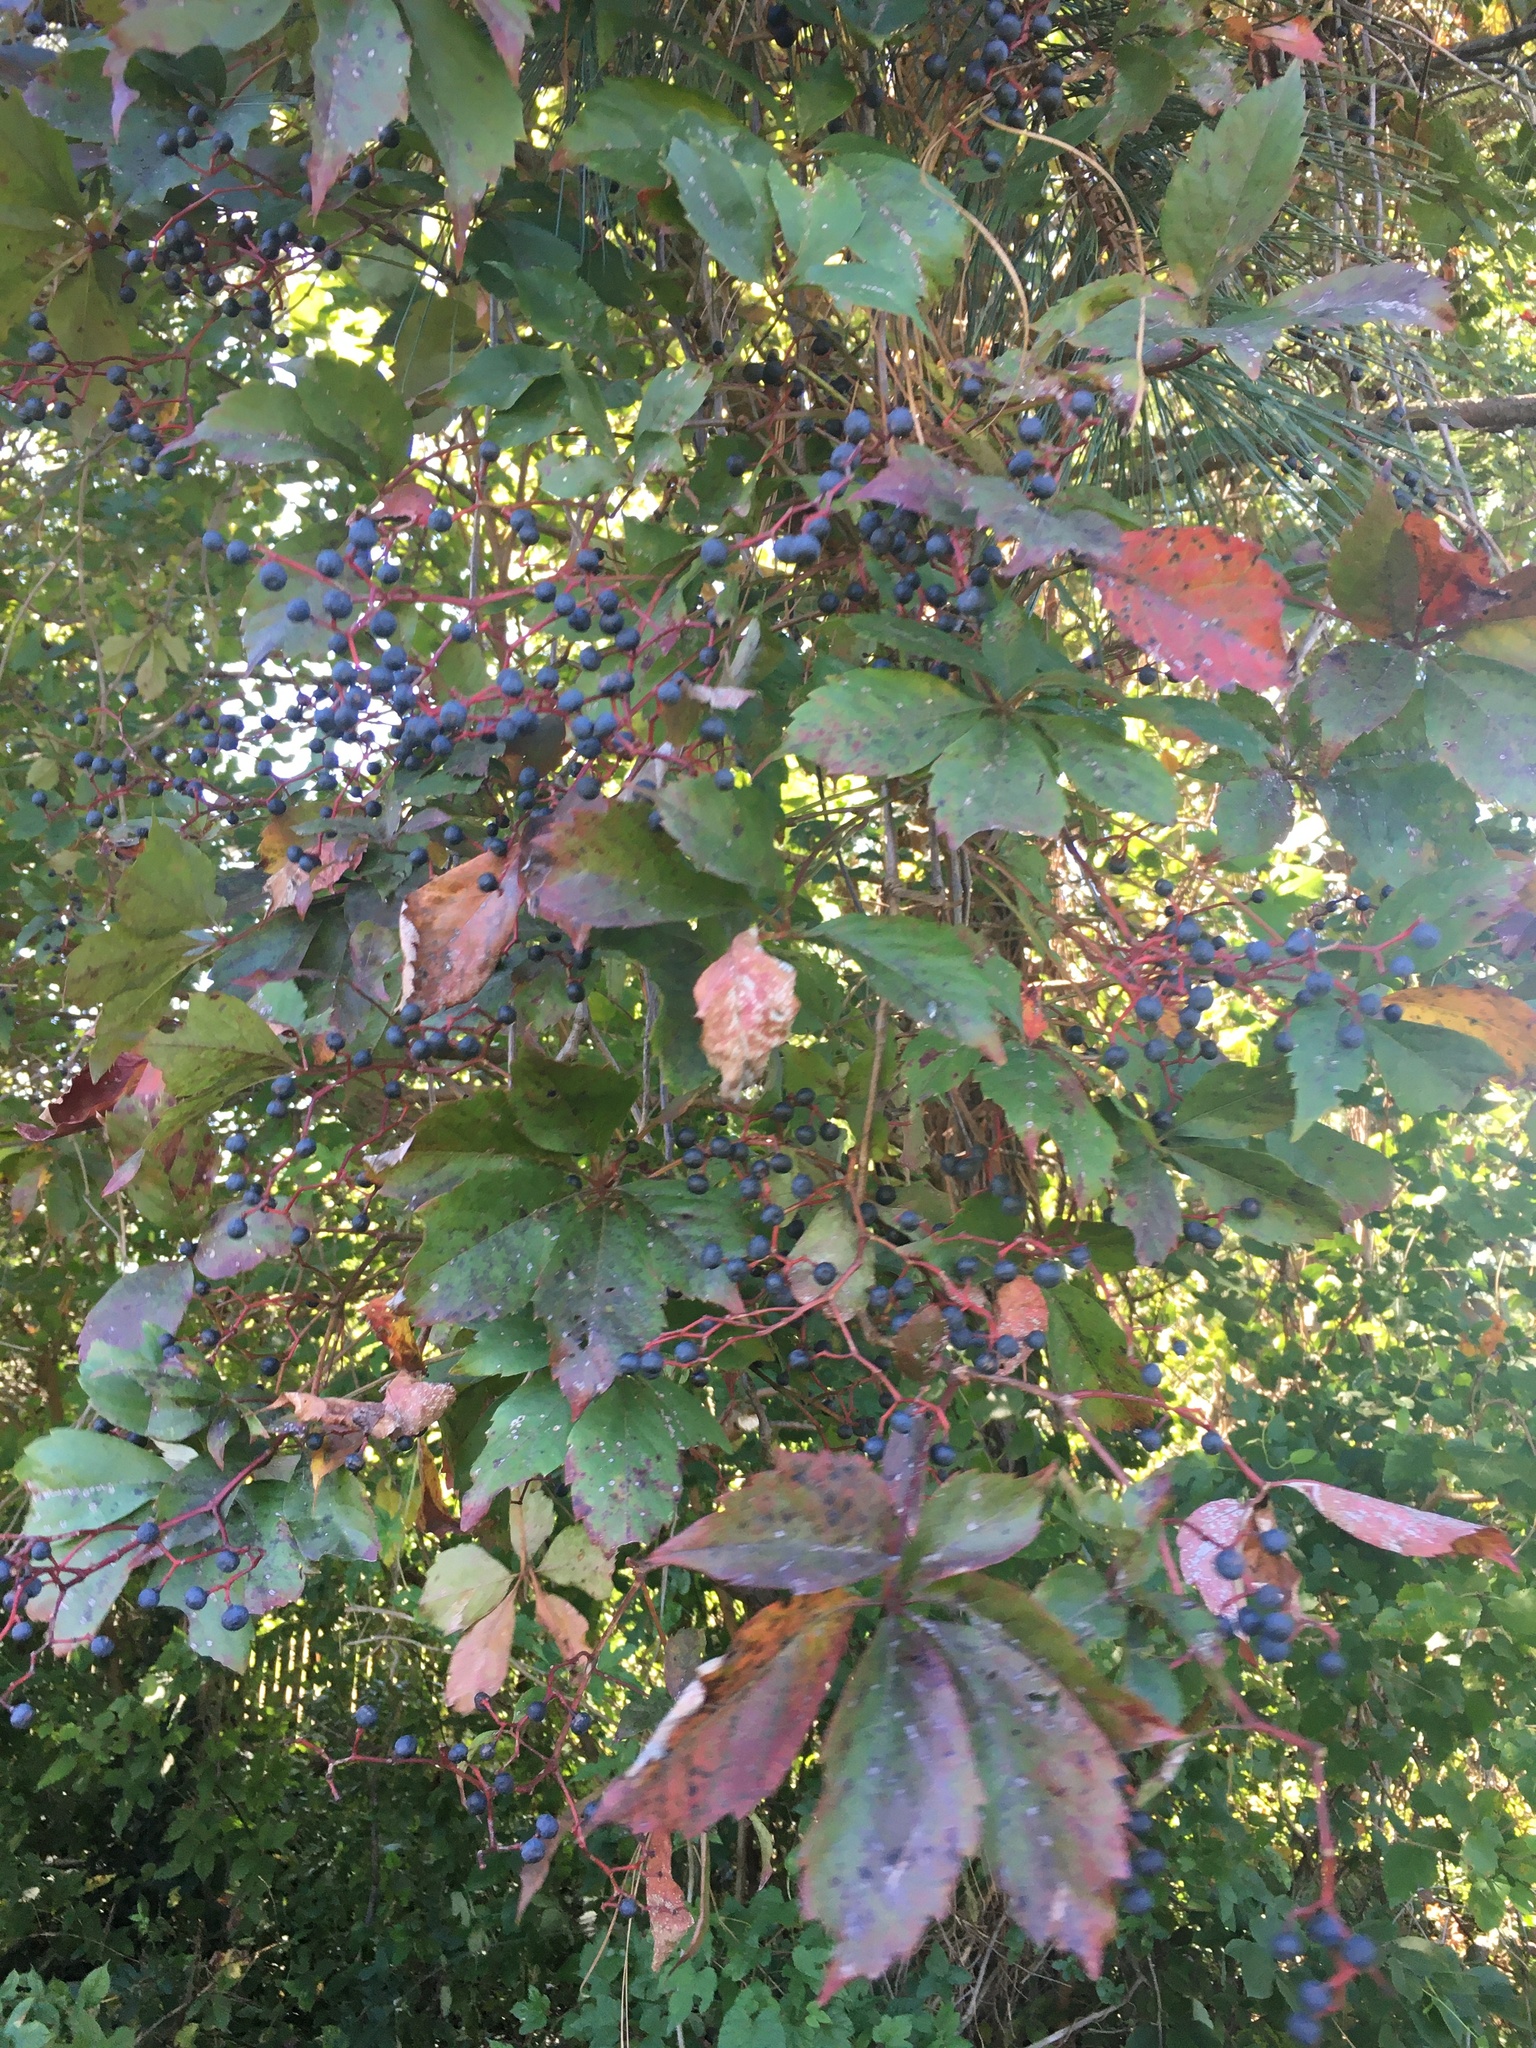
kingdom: Plantae
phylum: Tracheophyta
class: Magnoliopsida
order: Vitales
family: Vitaceae
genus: Parthenocissus
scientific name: Parthenocissus quinquefolia
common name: Virginia-creeper
